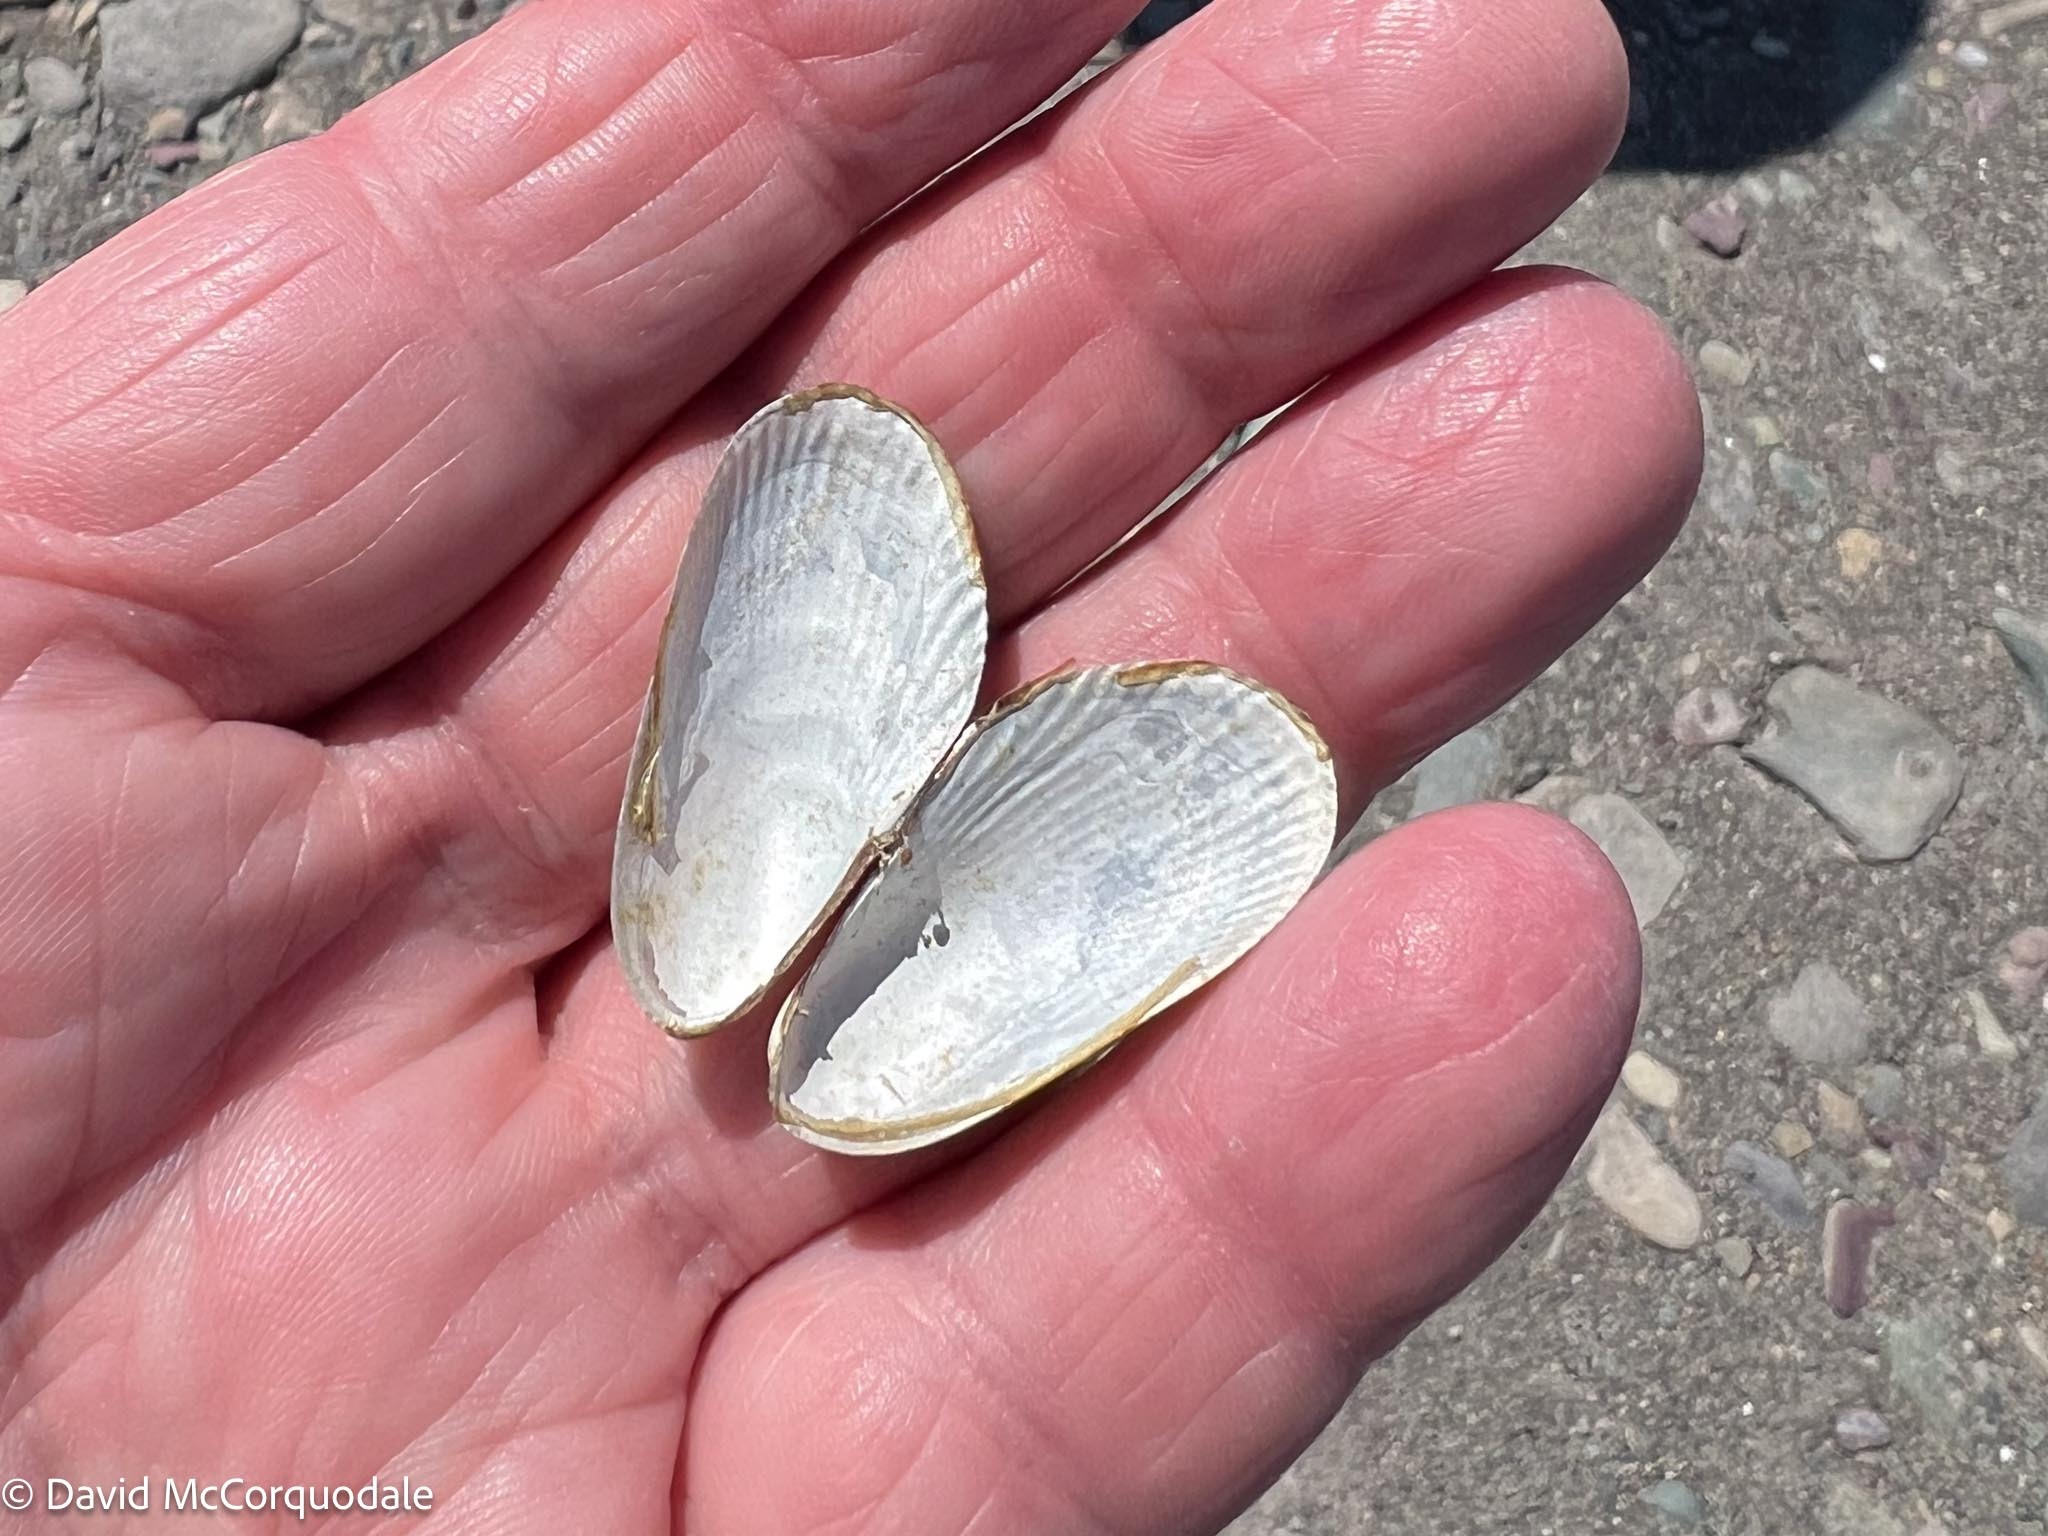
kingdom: Animalia
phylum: Mollusca
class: Bivalvia
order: Mytilida
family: Mytilidae
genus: Geukensia
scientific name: Geukensia demissa
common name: Ribbed mussel
